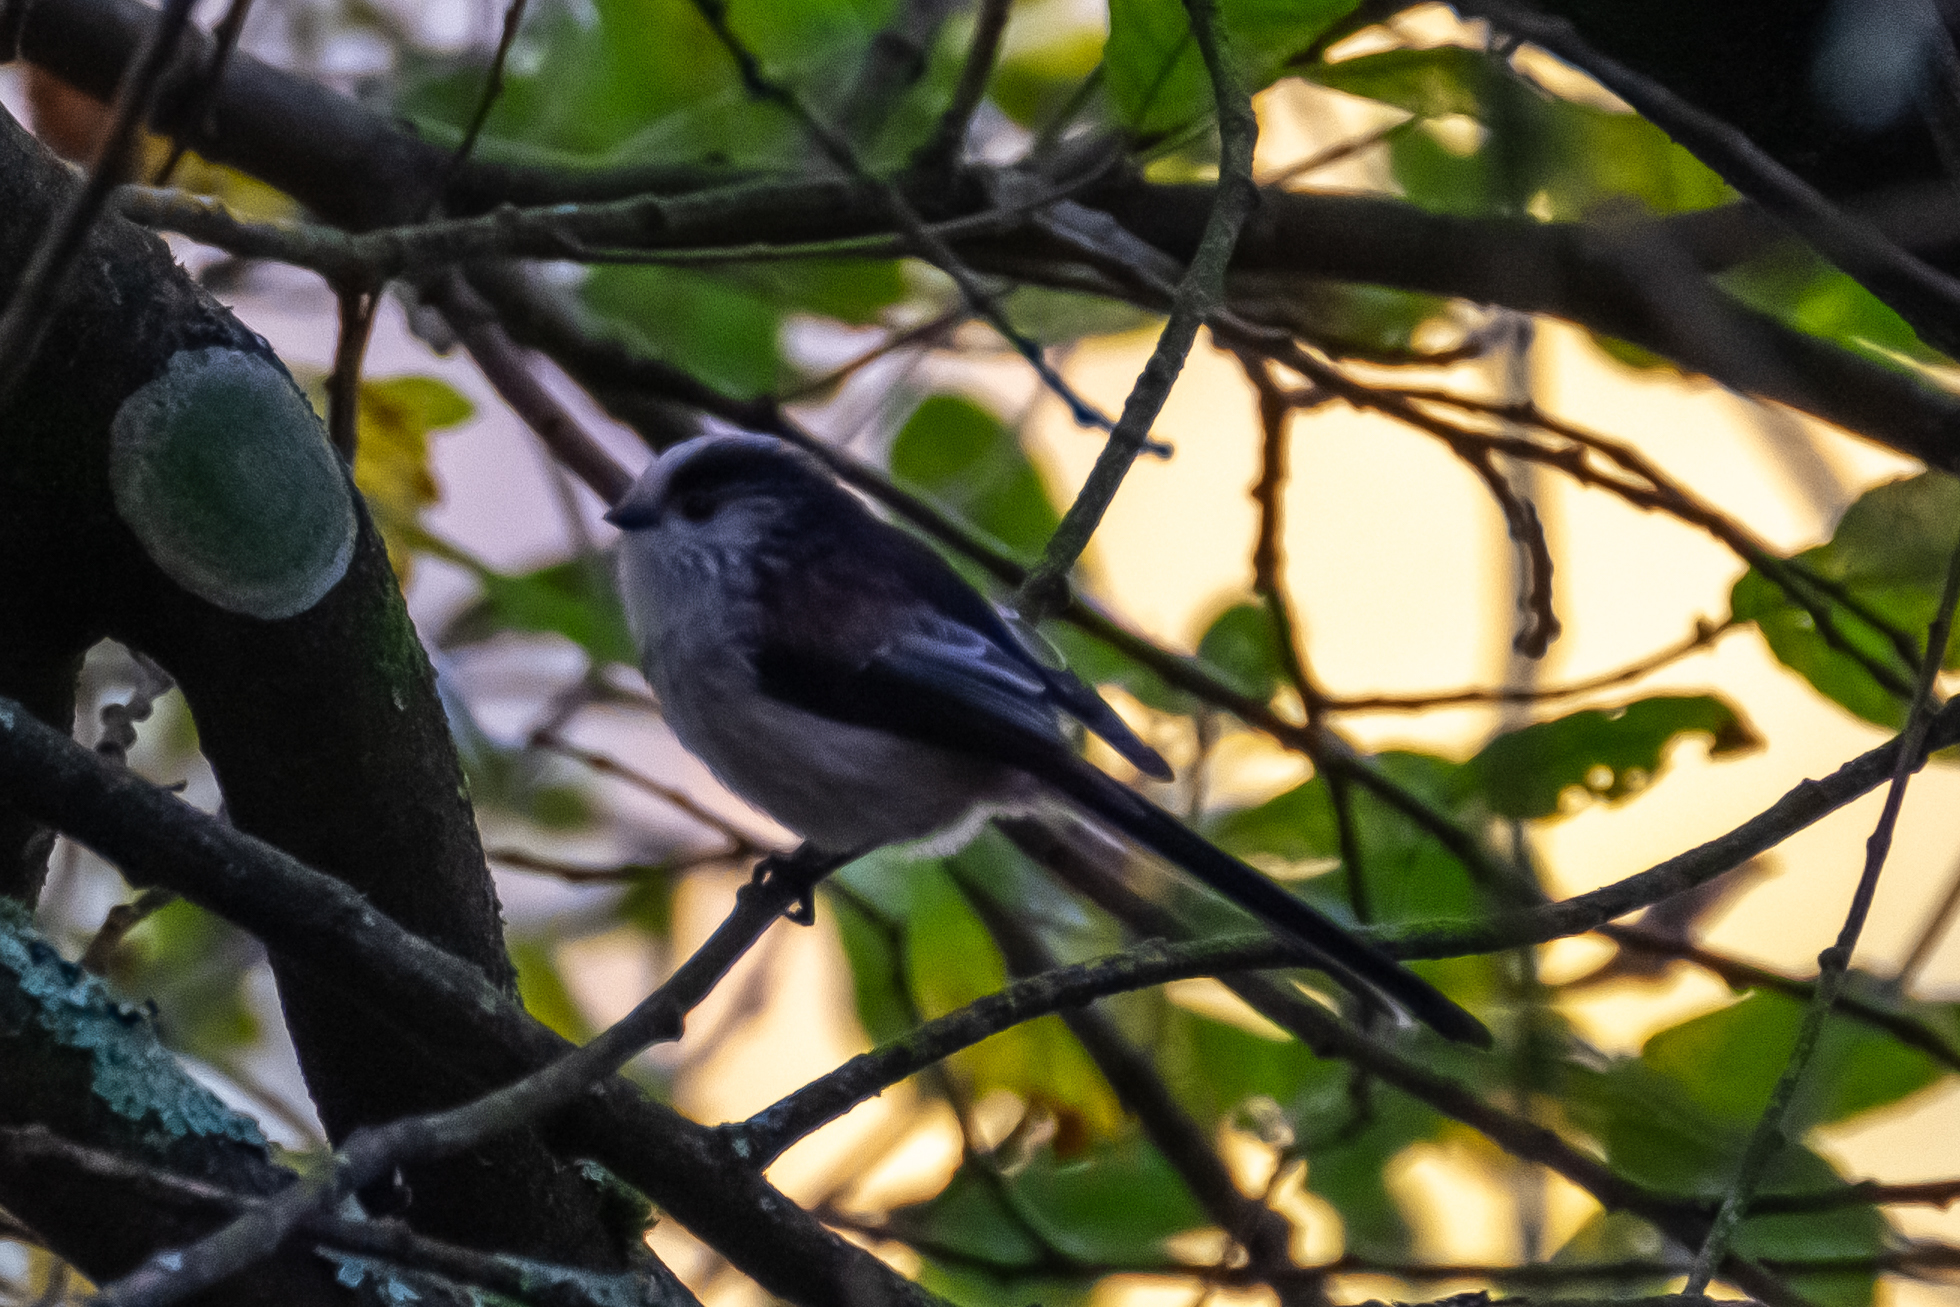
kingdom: Animalia
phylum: Chordata
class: Aves
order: Passeriformes
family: Aegithalidae
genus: Aegithalos
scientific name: Aegithalos caudatus
